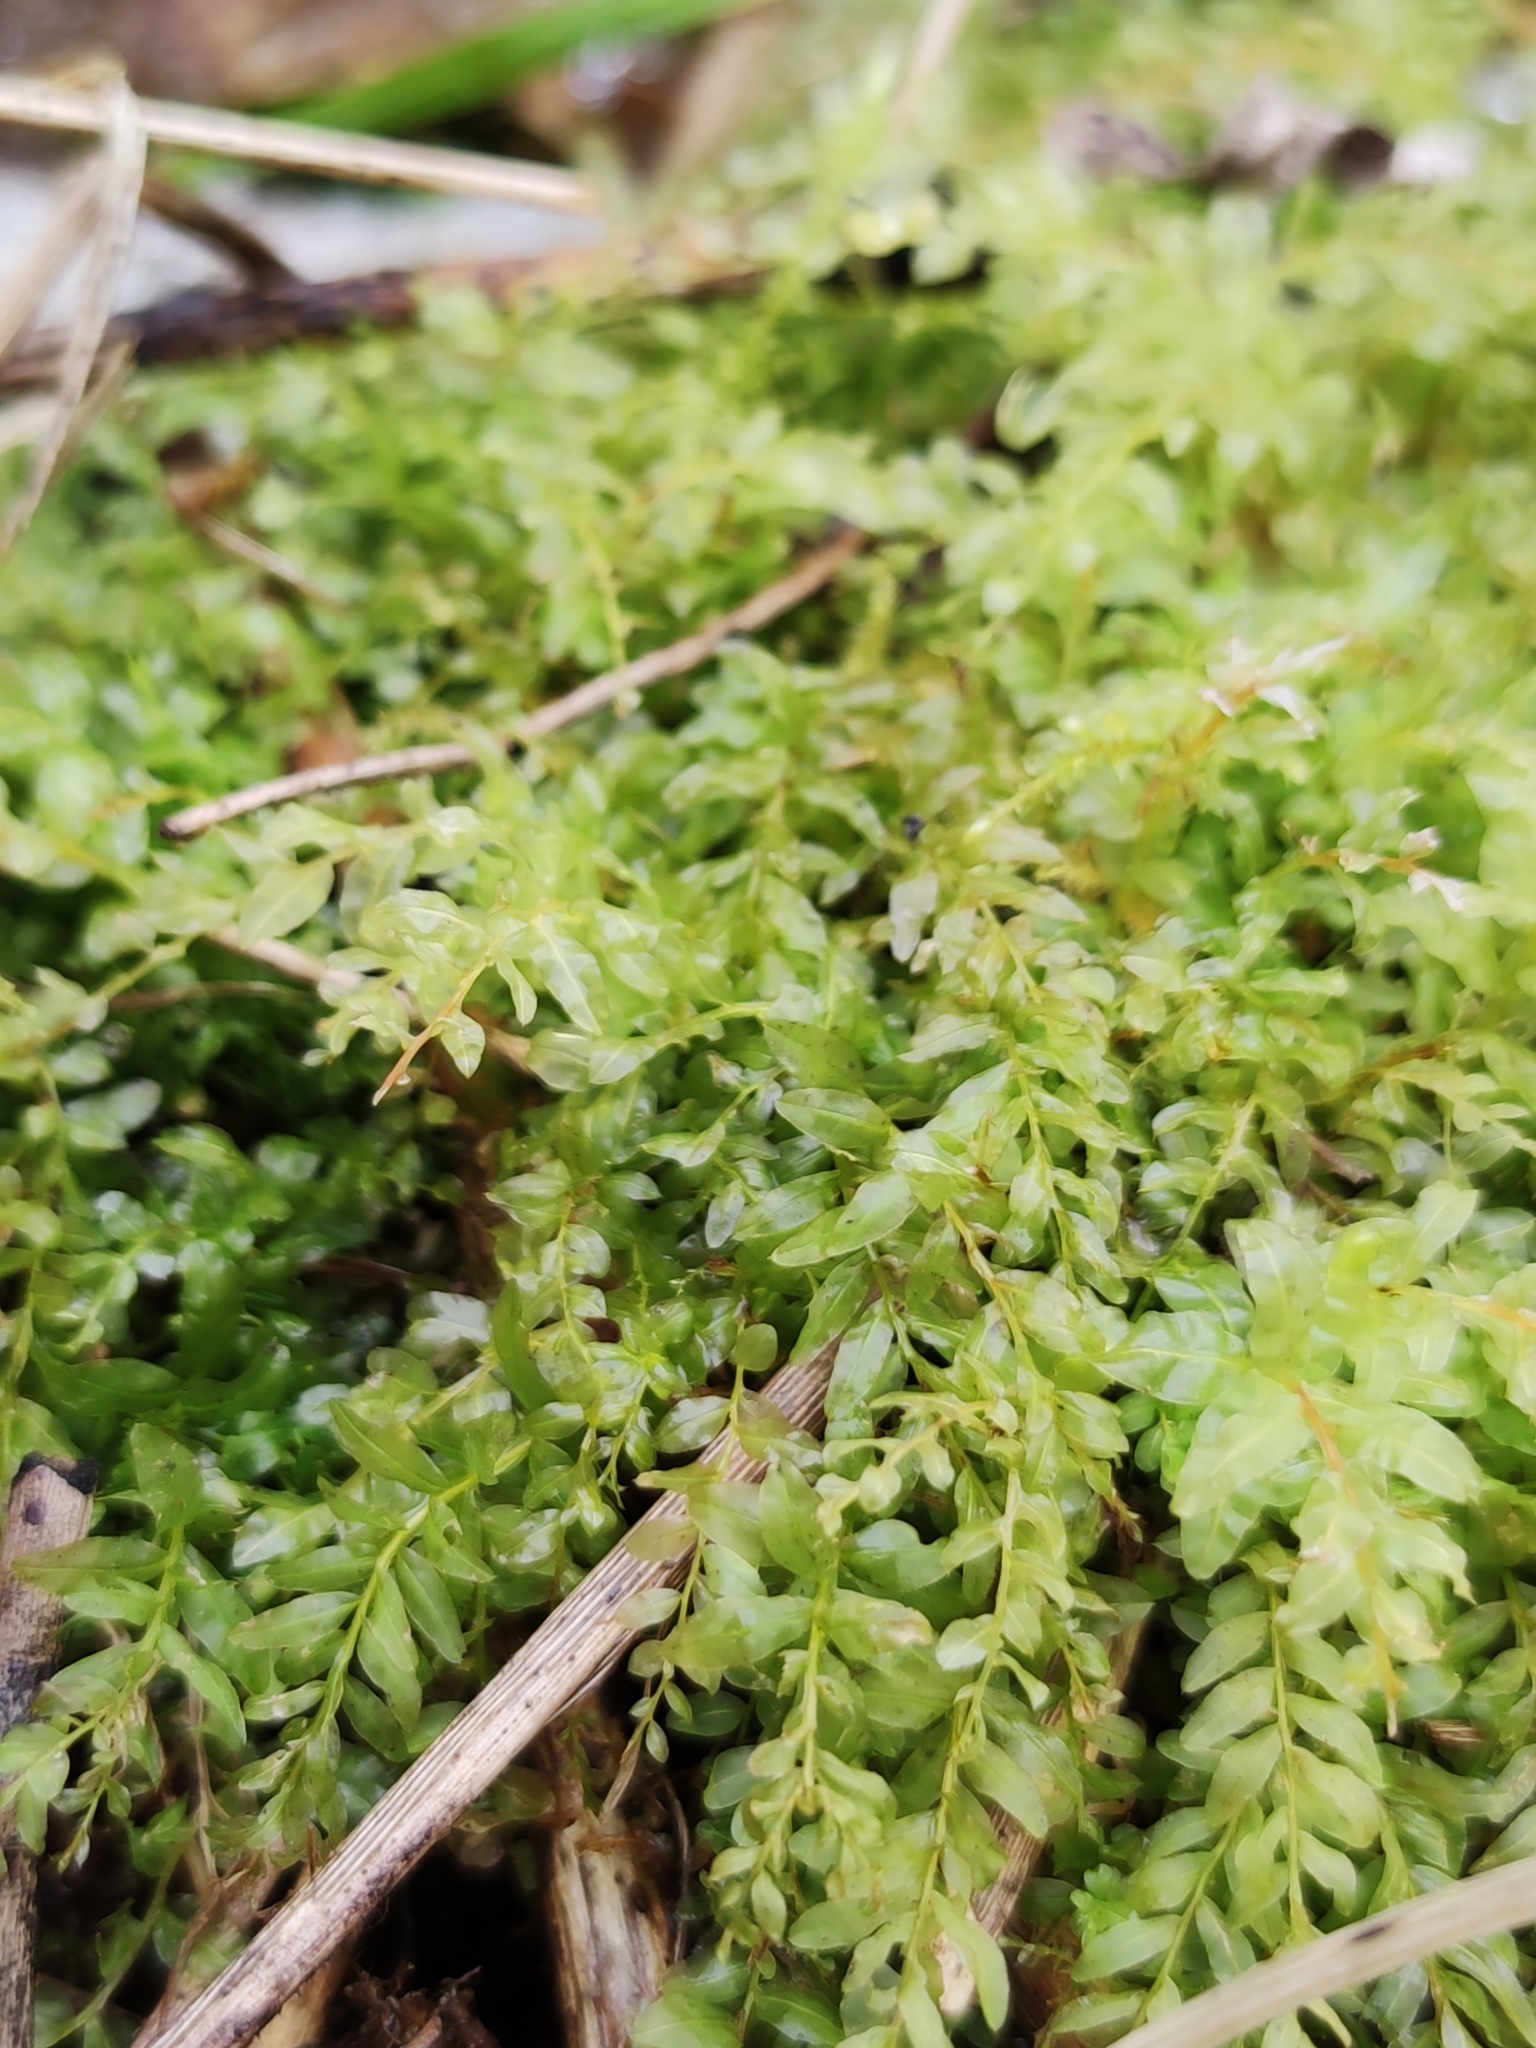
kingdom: Plantae
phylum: Bryophyta
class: Bryopsida
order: Bryales
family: Mniaceae
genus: Plagiomnium
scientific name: Plagiomnium undulatum
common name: Hart's-tongue thyme-moss
